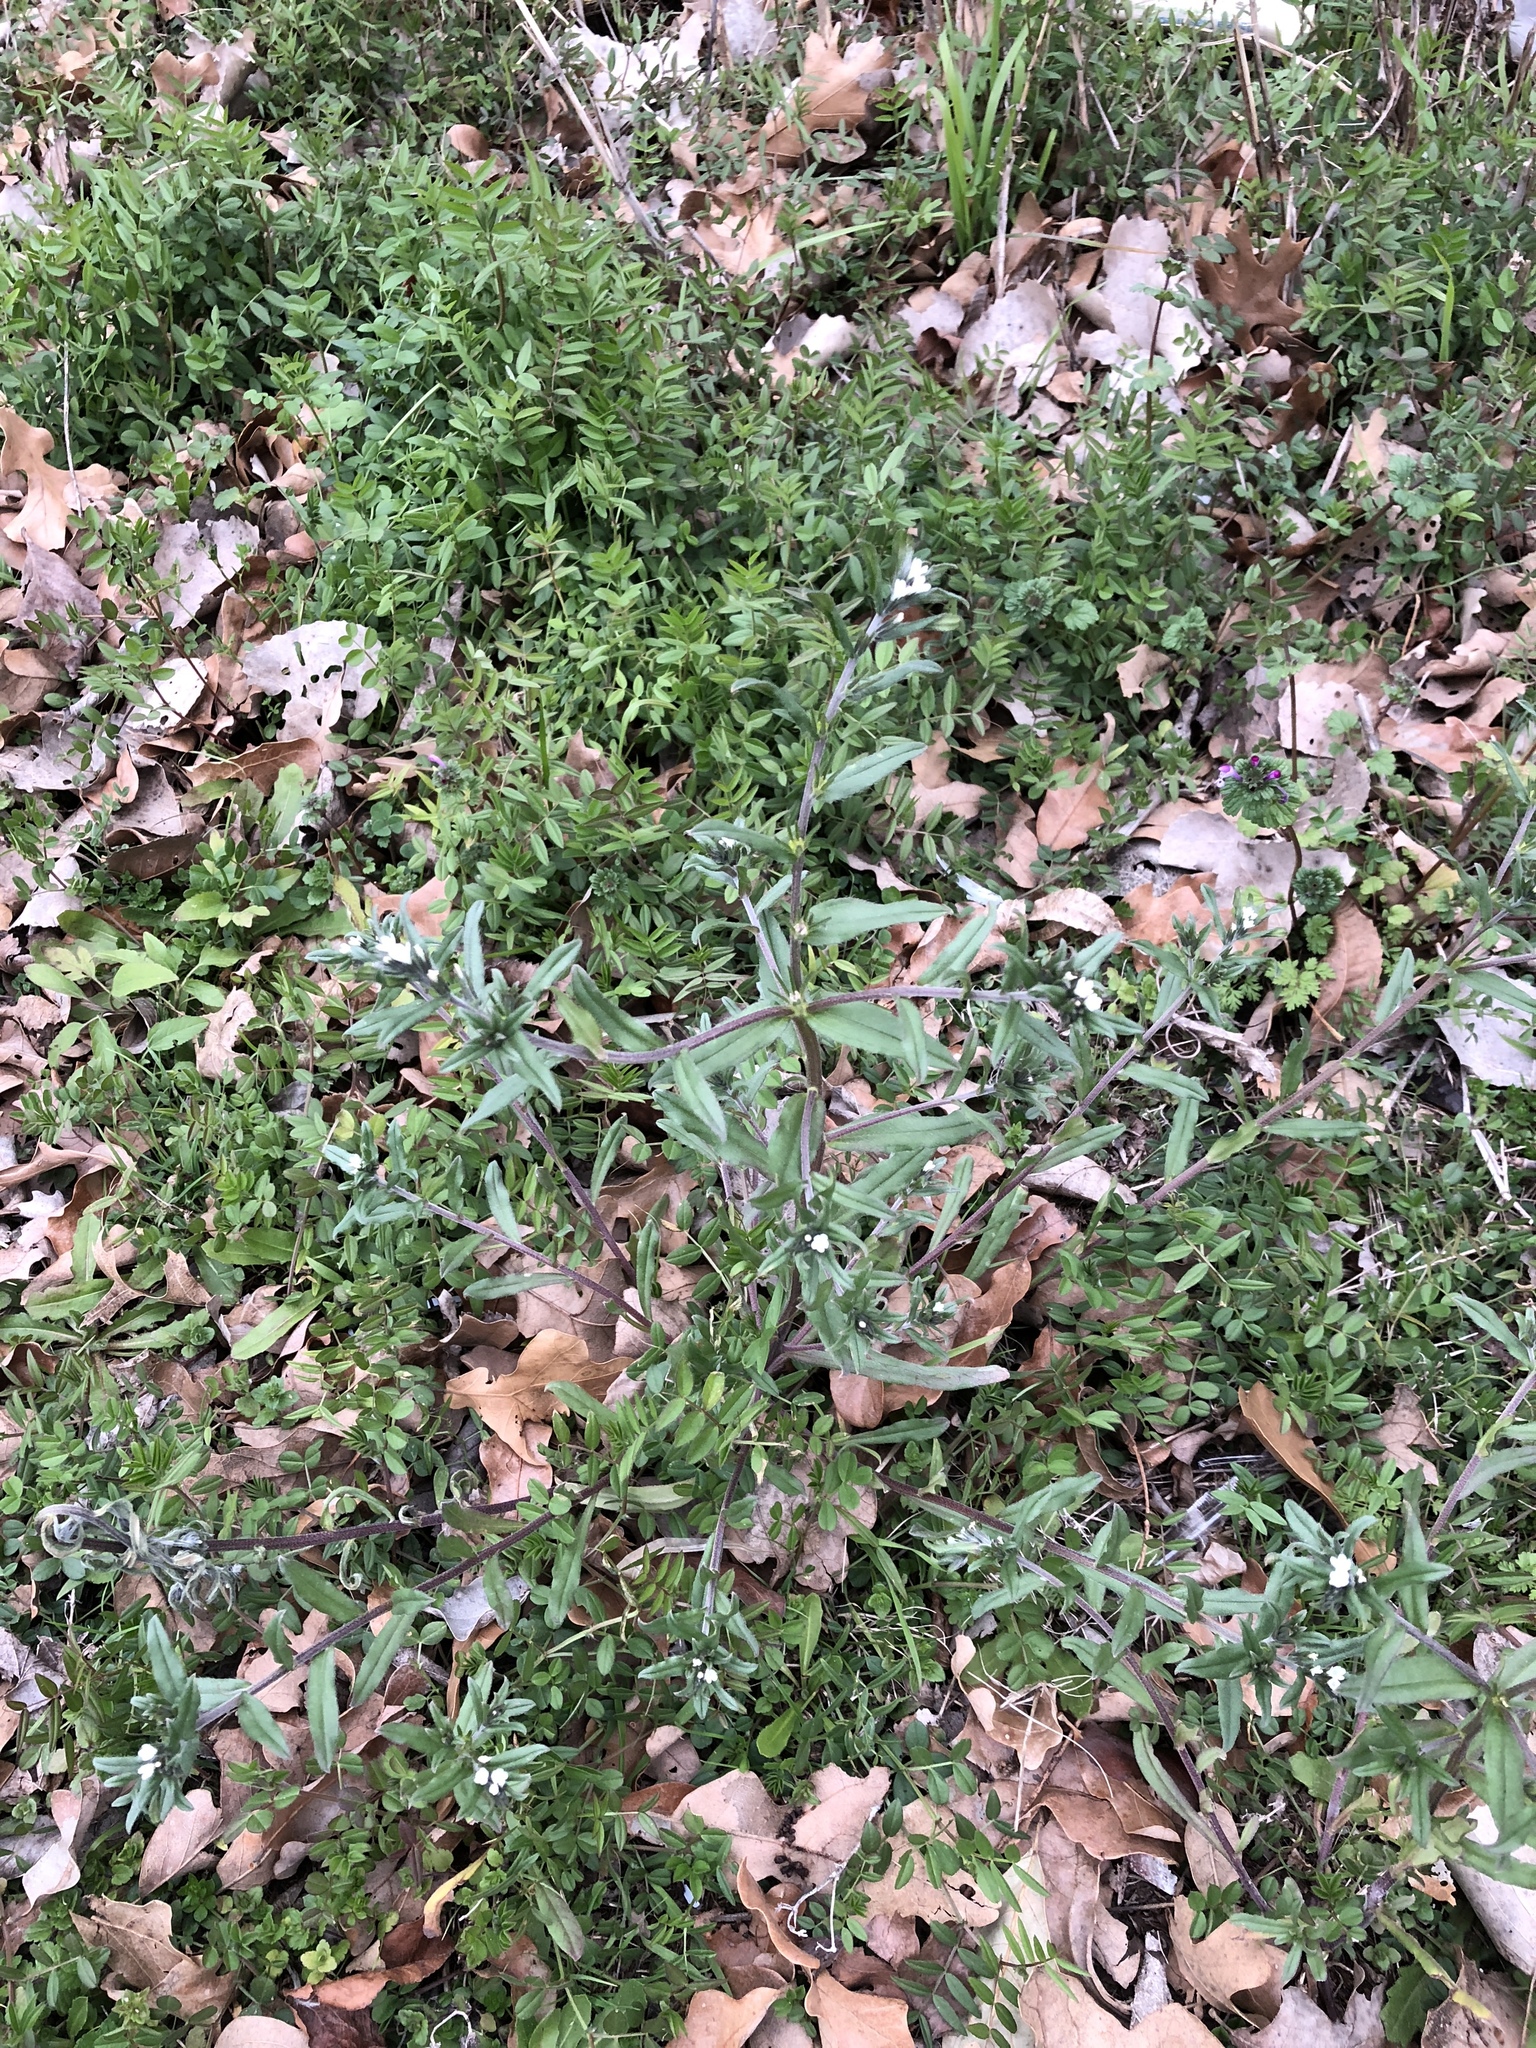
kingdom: Plantae
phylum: Tracheophyta
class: Magnoliopsida
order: Boraginales
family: Boraginaceae
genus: Buglossoides
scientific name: Buglossoides arvensis
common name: Corn gromwell
